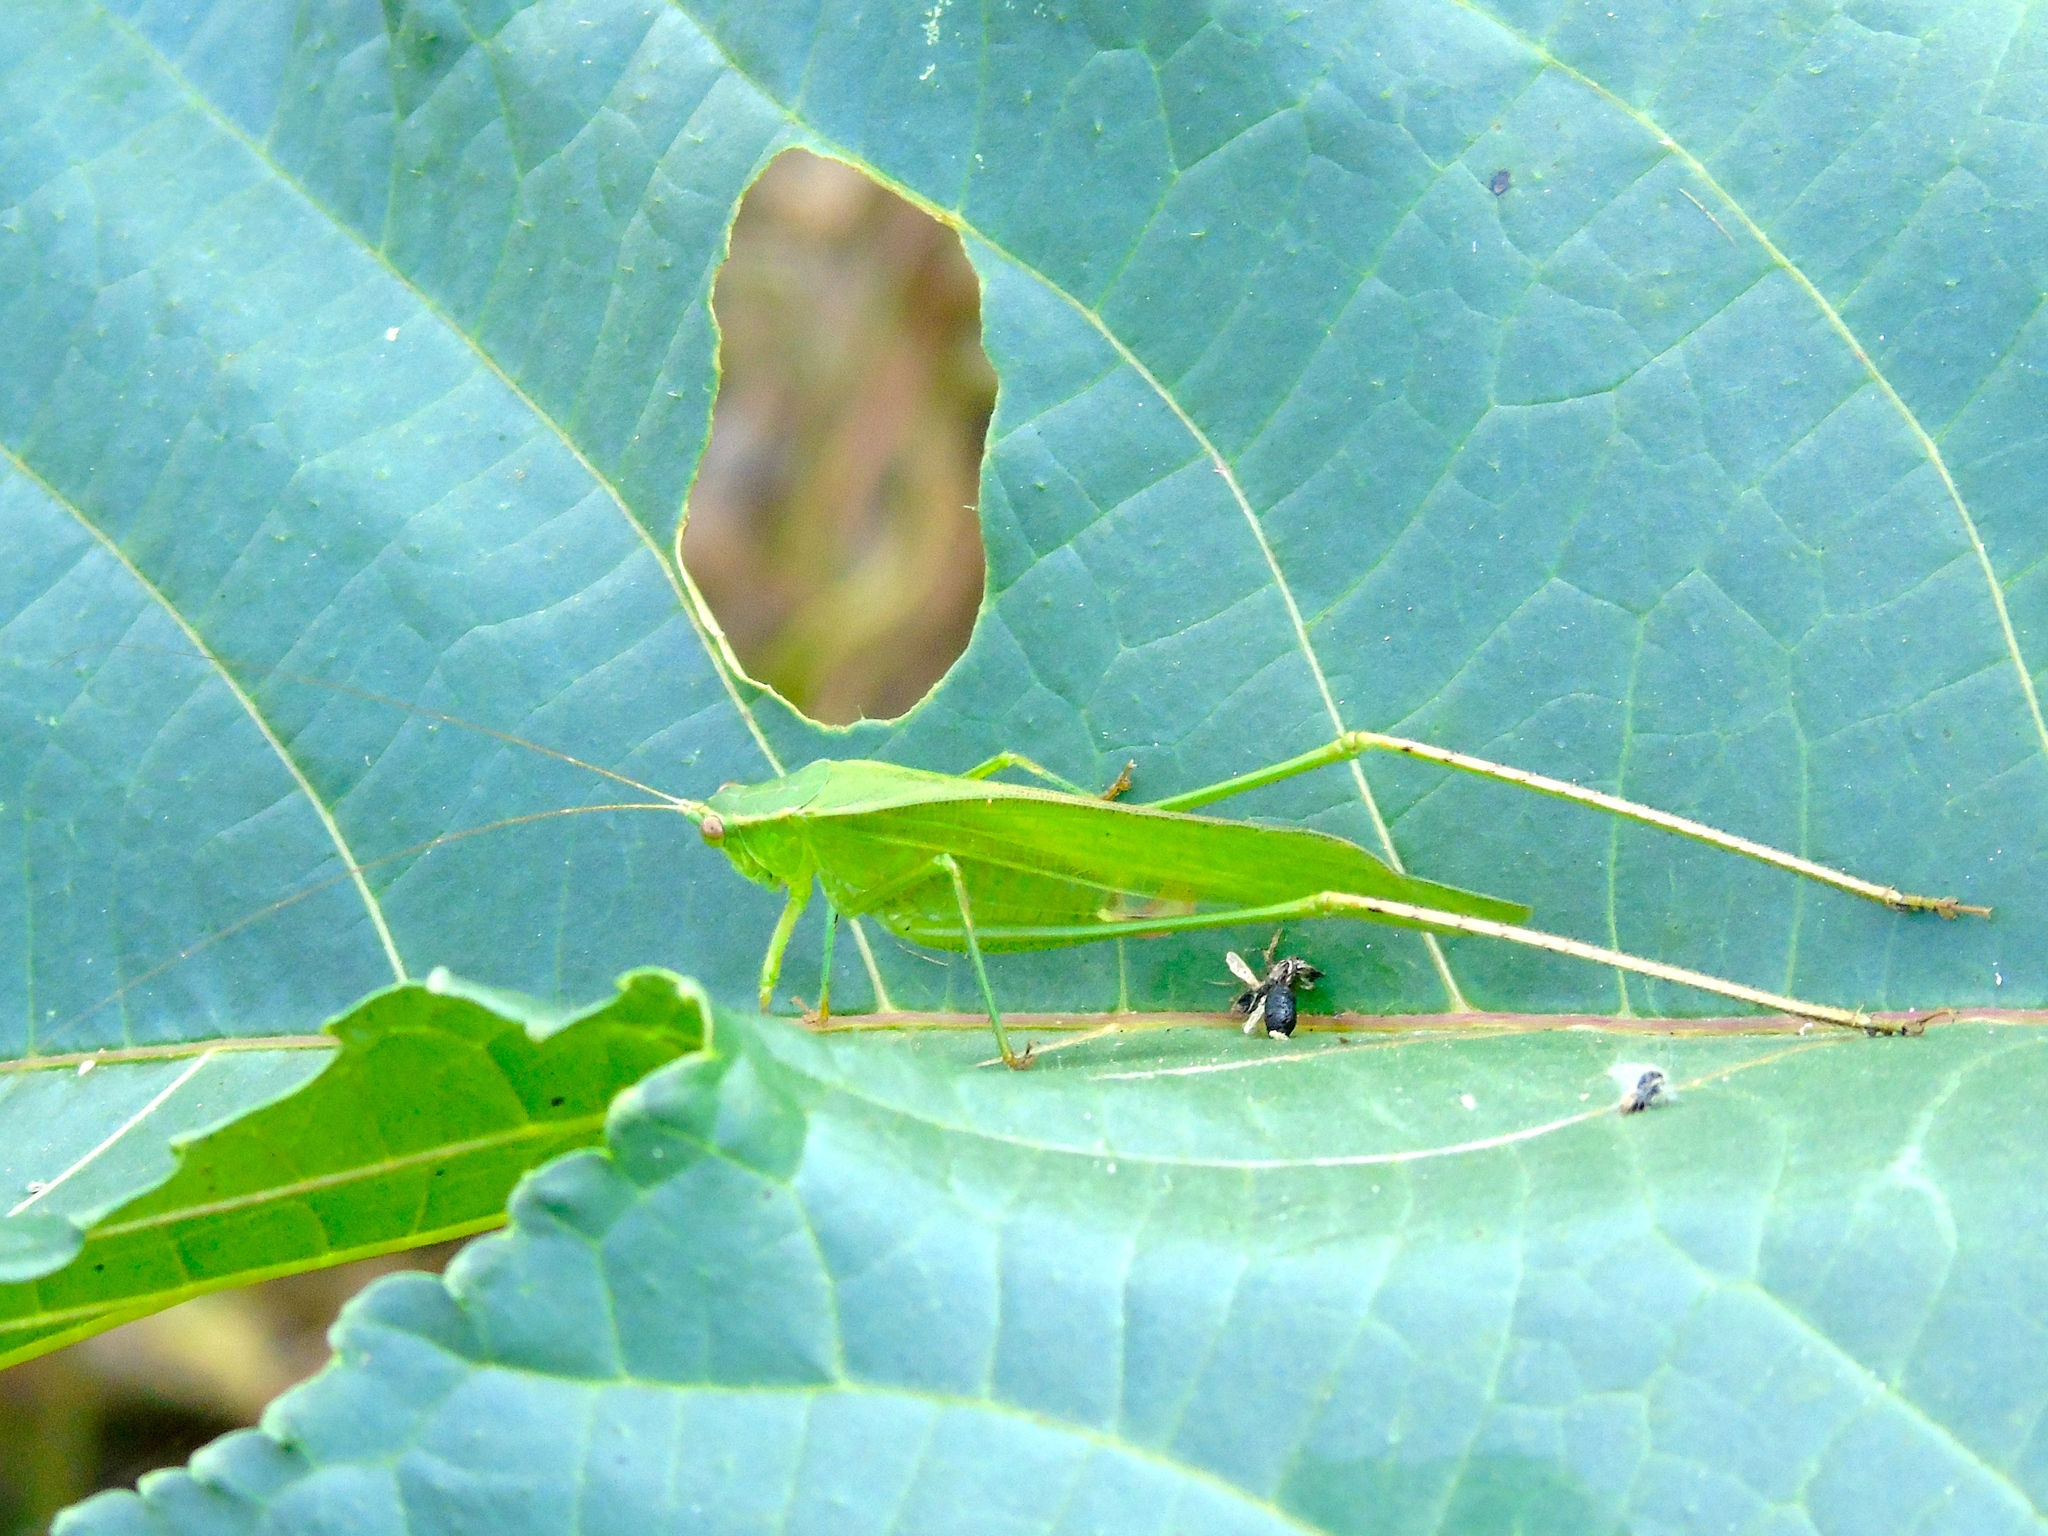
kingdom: Animalia
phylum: Arthropoda
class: Insecta
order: Orthoptera
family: Tettigoniidae
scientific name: Tettigoniidae
